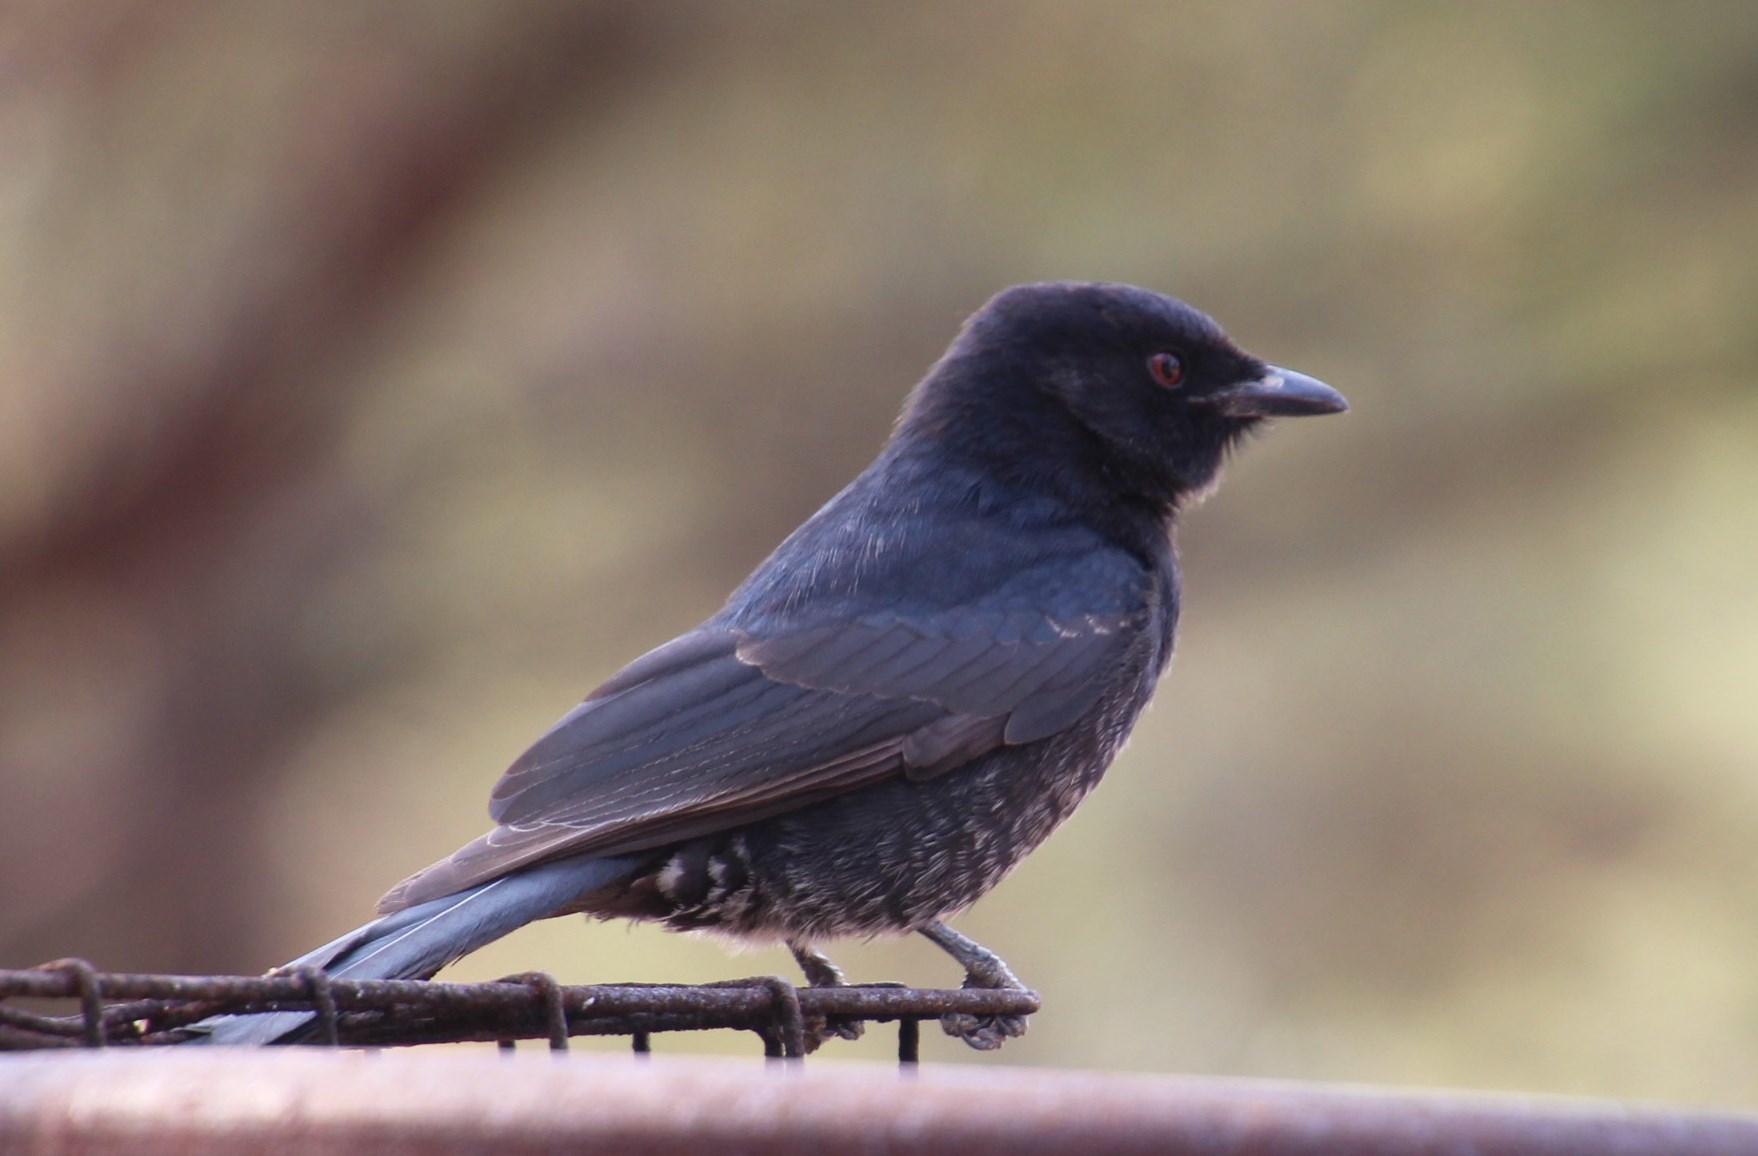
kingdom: Animalia
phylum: Chordata
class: Aves
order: Passeriformes
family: Dicruridae
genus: Dicrurus
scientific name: Dicrurus adsimilis
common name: Fork-tailed drongo
